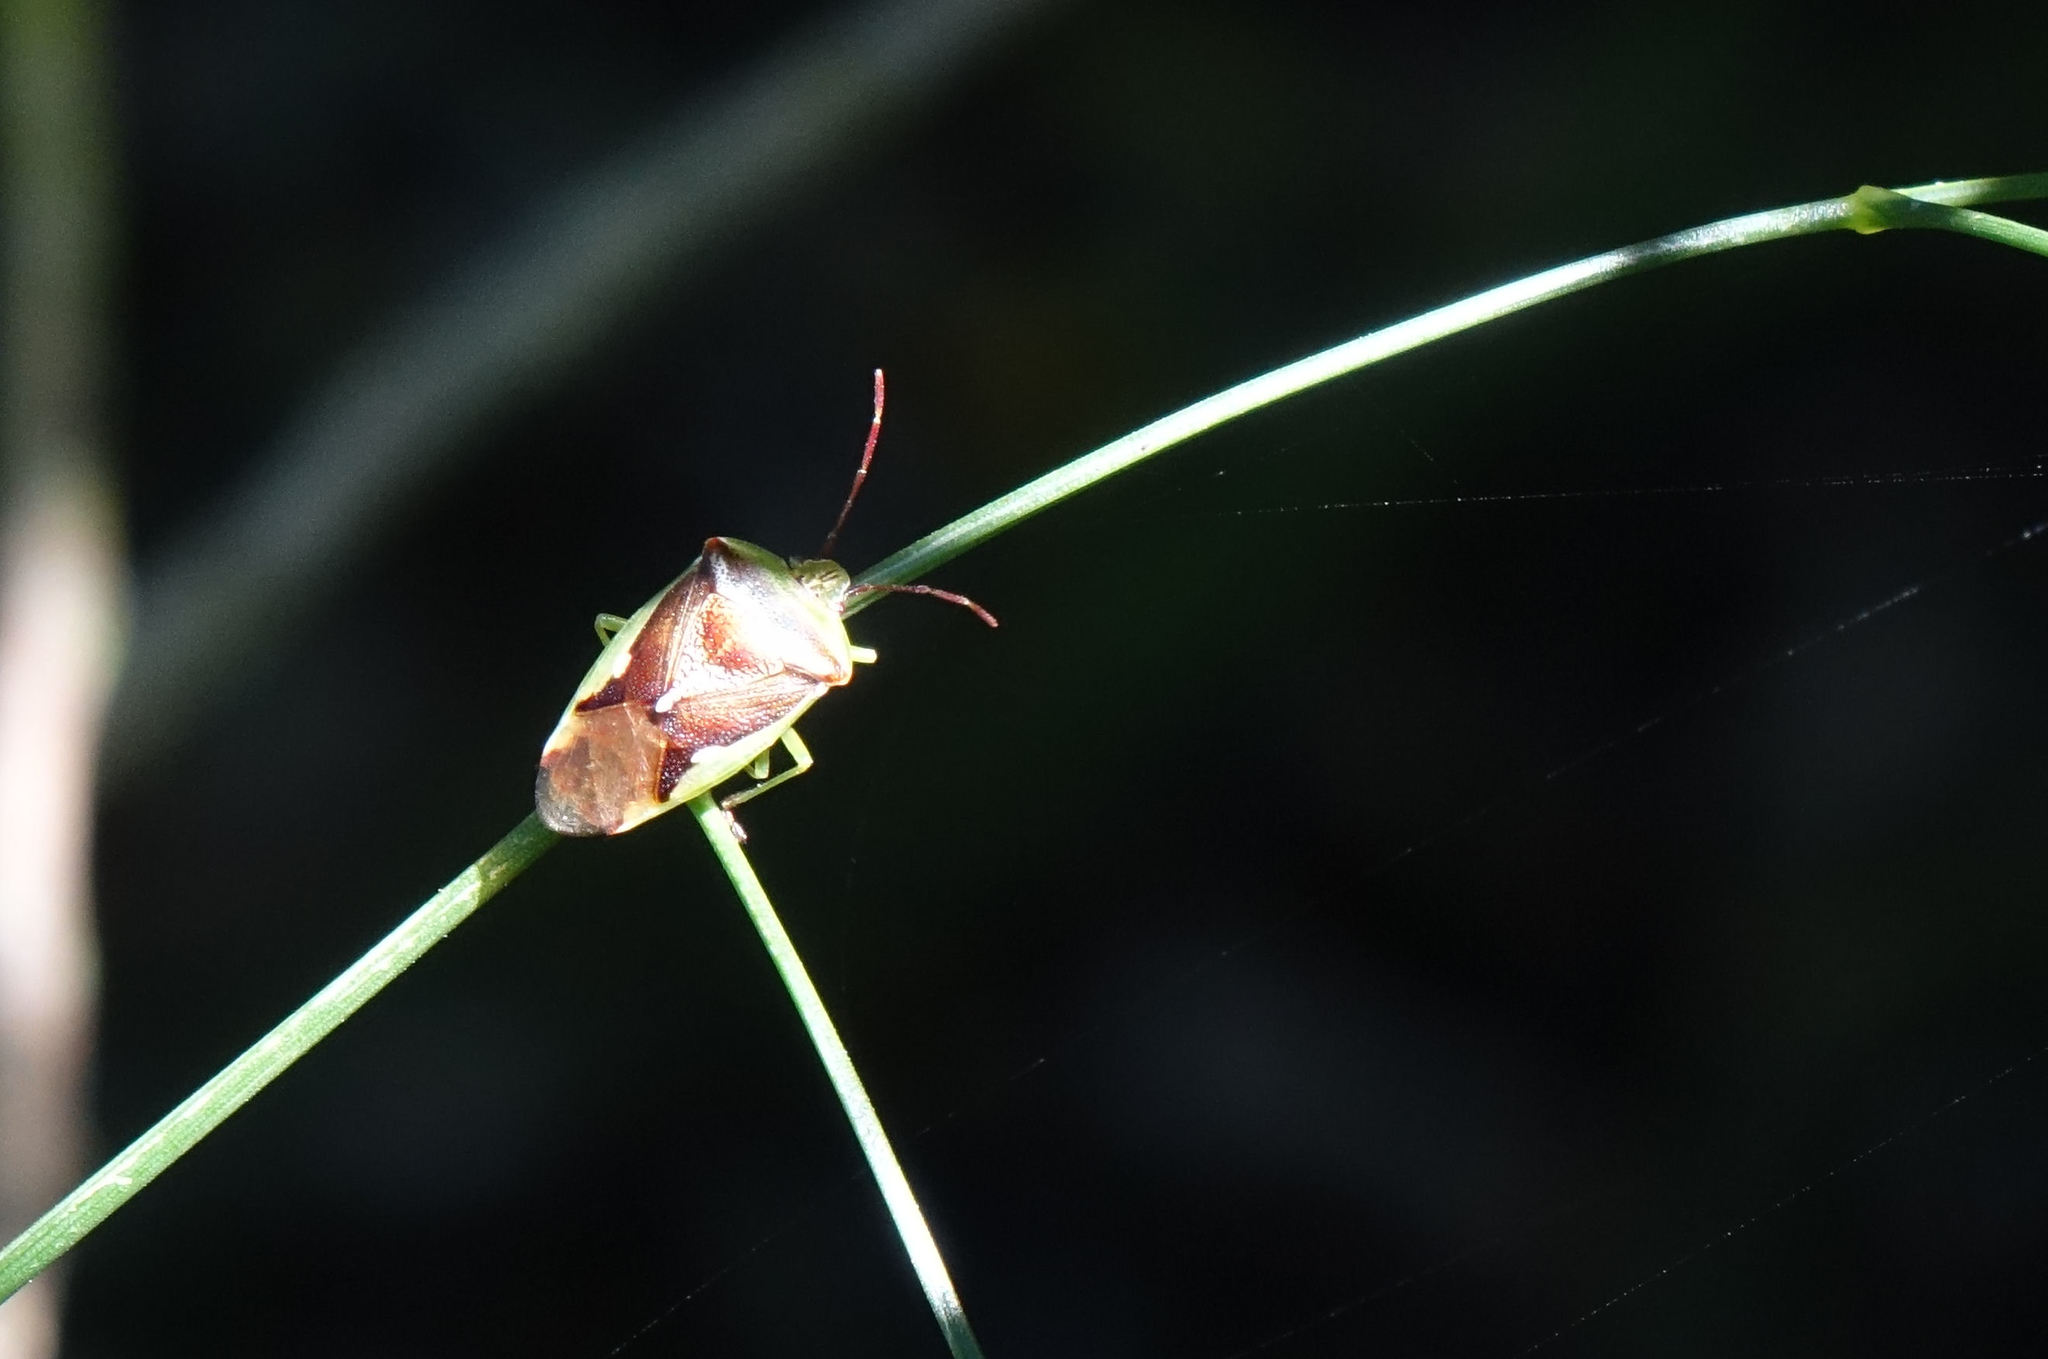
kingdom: Animalia
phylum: Arthropoda
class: Insecta
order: Hemiptera
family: Acanthosomatidae
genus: Oncacontias
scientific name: Oncacontias vittatus
